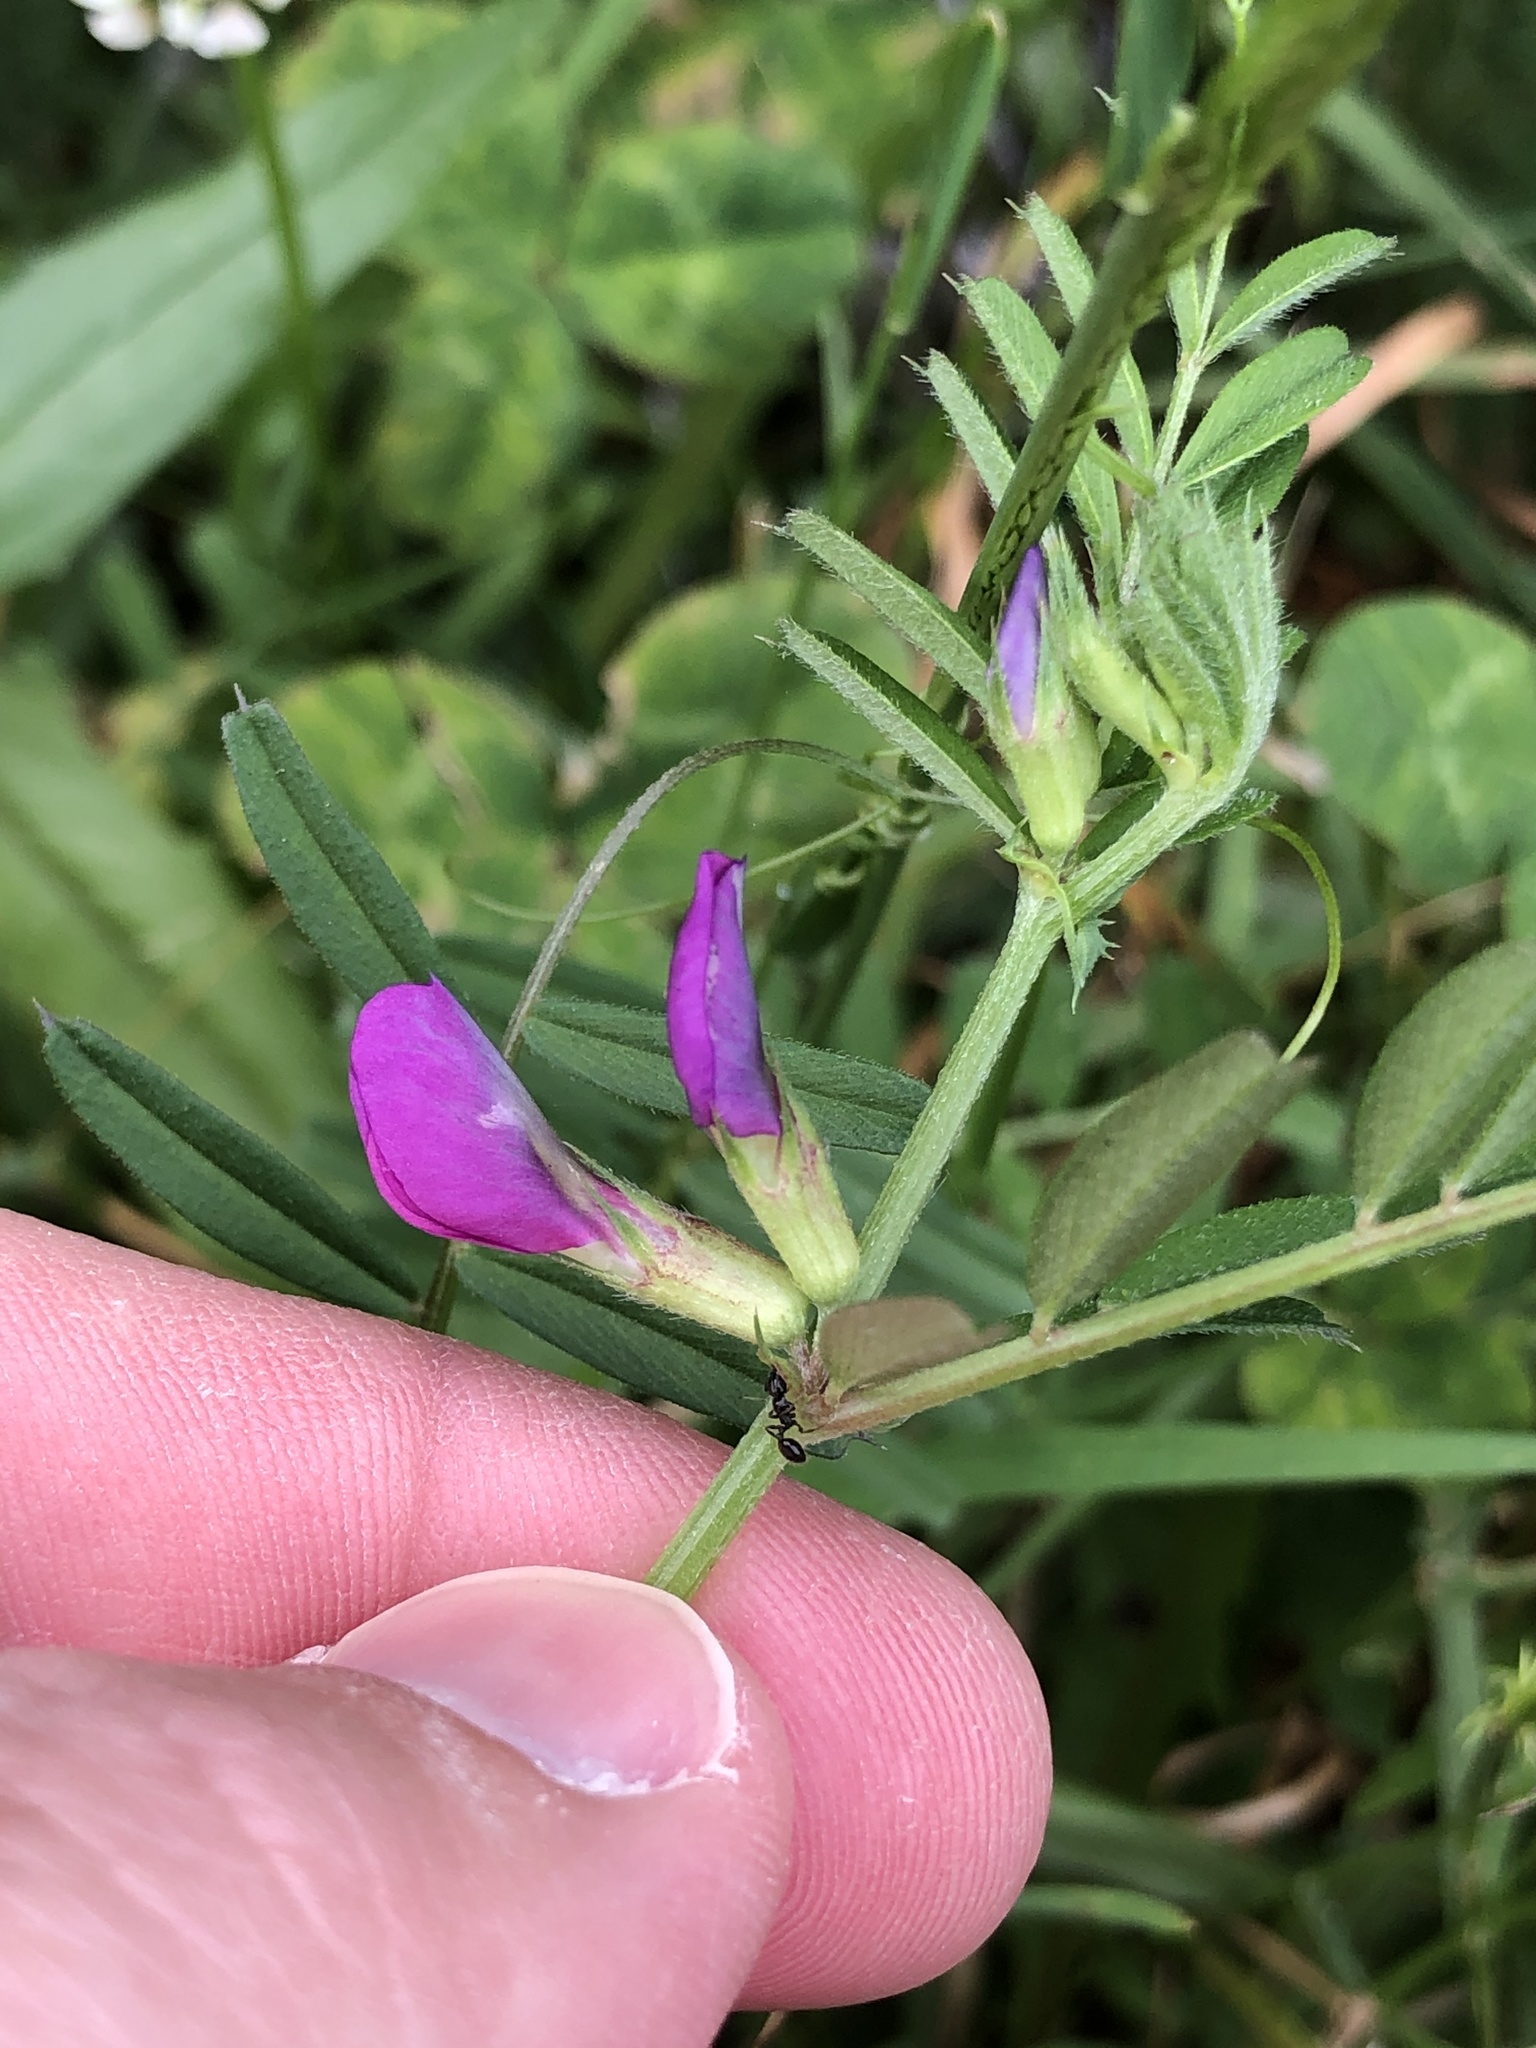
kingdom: Plantae
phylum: Tracheophyta
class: Magnoliopsida
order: Fabales
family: Fabaceae
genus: Vicia
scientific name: Vicia sativa
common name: Garden vetch
